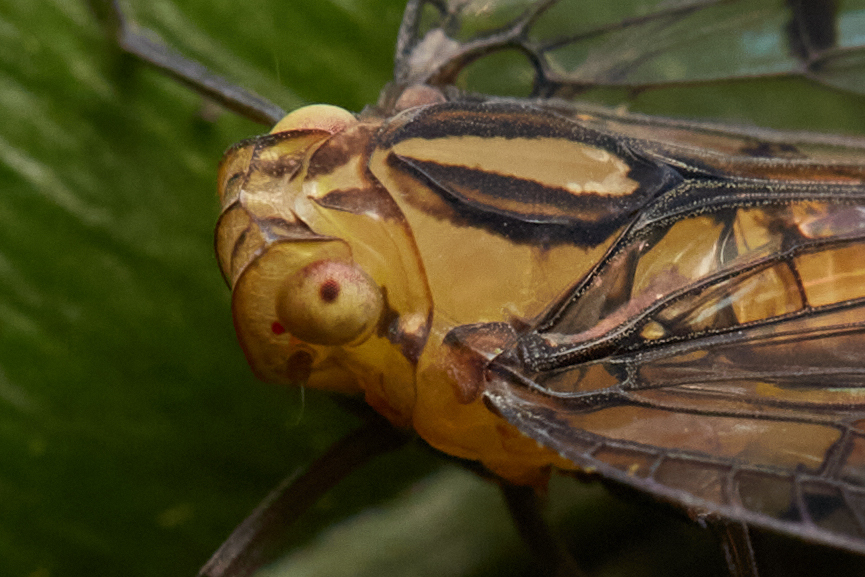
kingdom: Animalia
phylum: Arthropoda
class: Insecta
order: Hemiptera
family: Nogodinidae
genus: Biolleyana
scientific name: Biolleyana costalis
